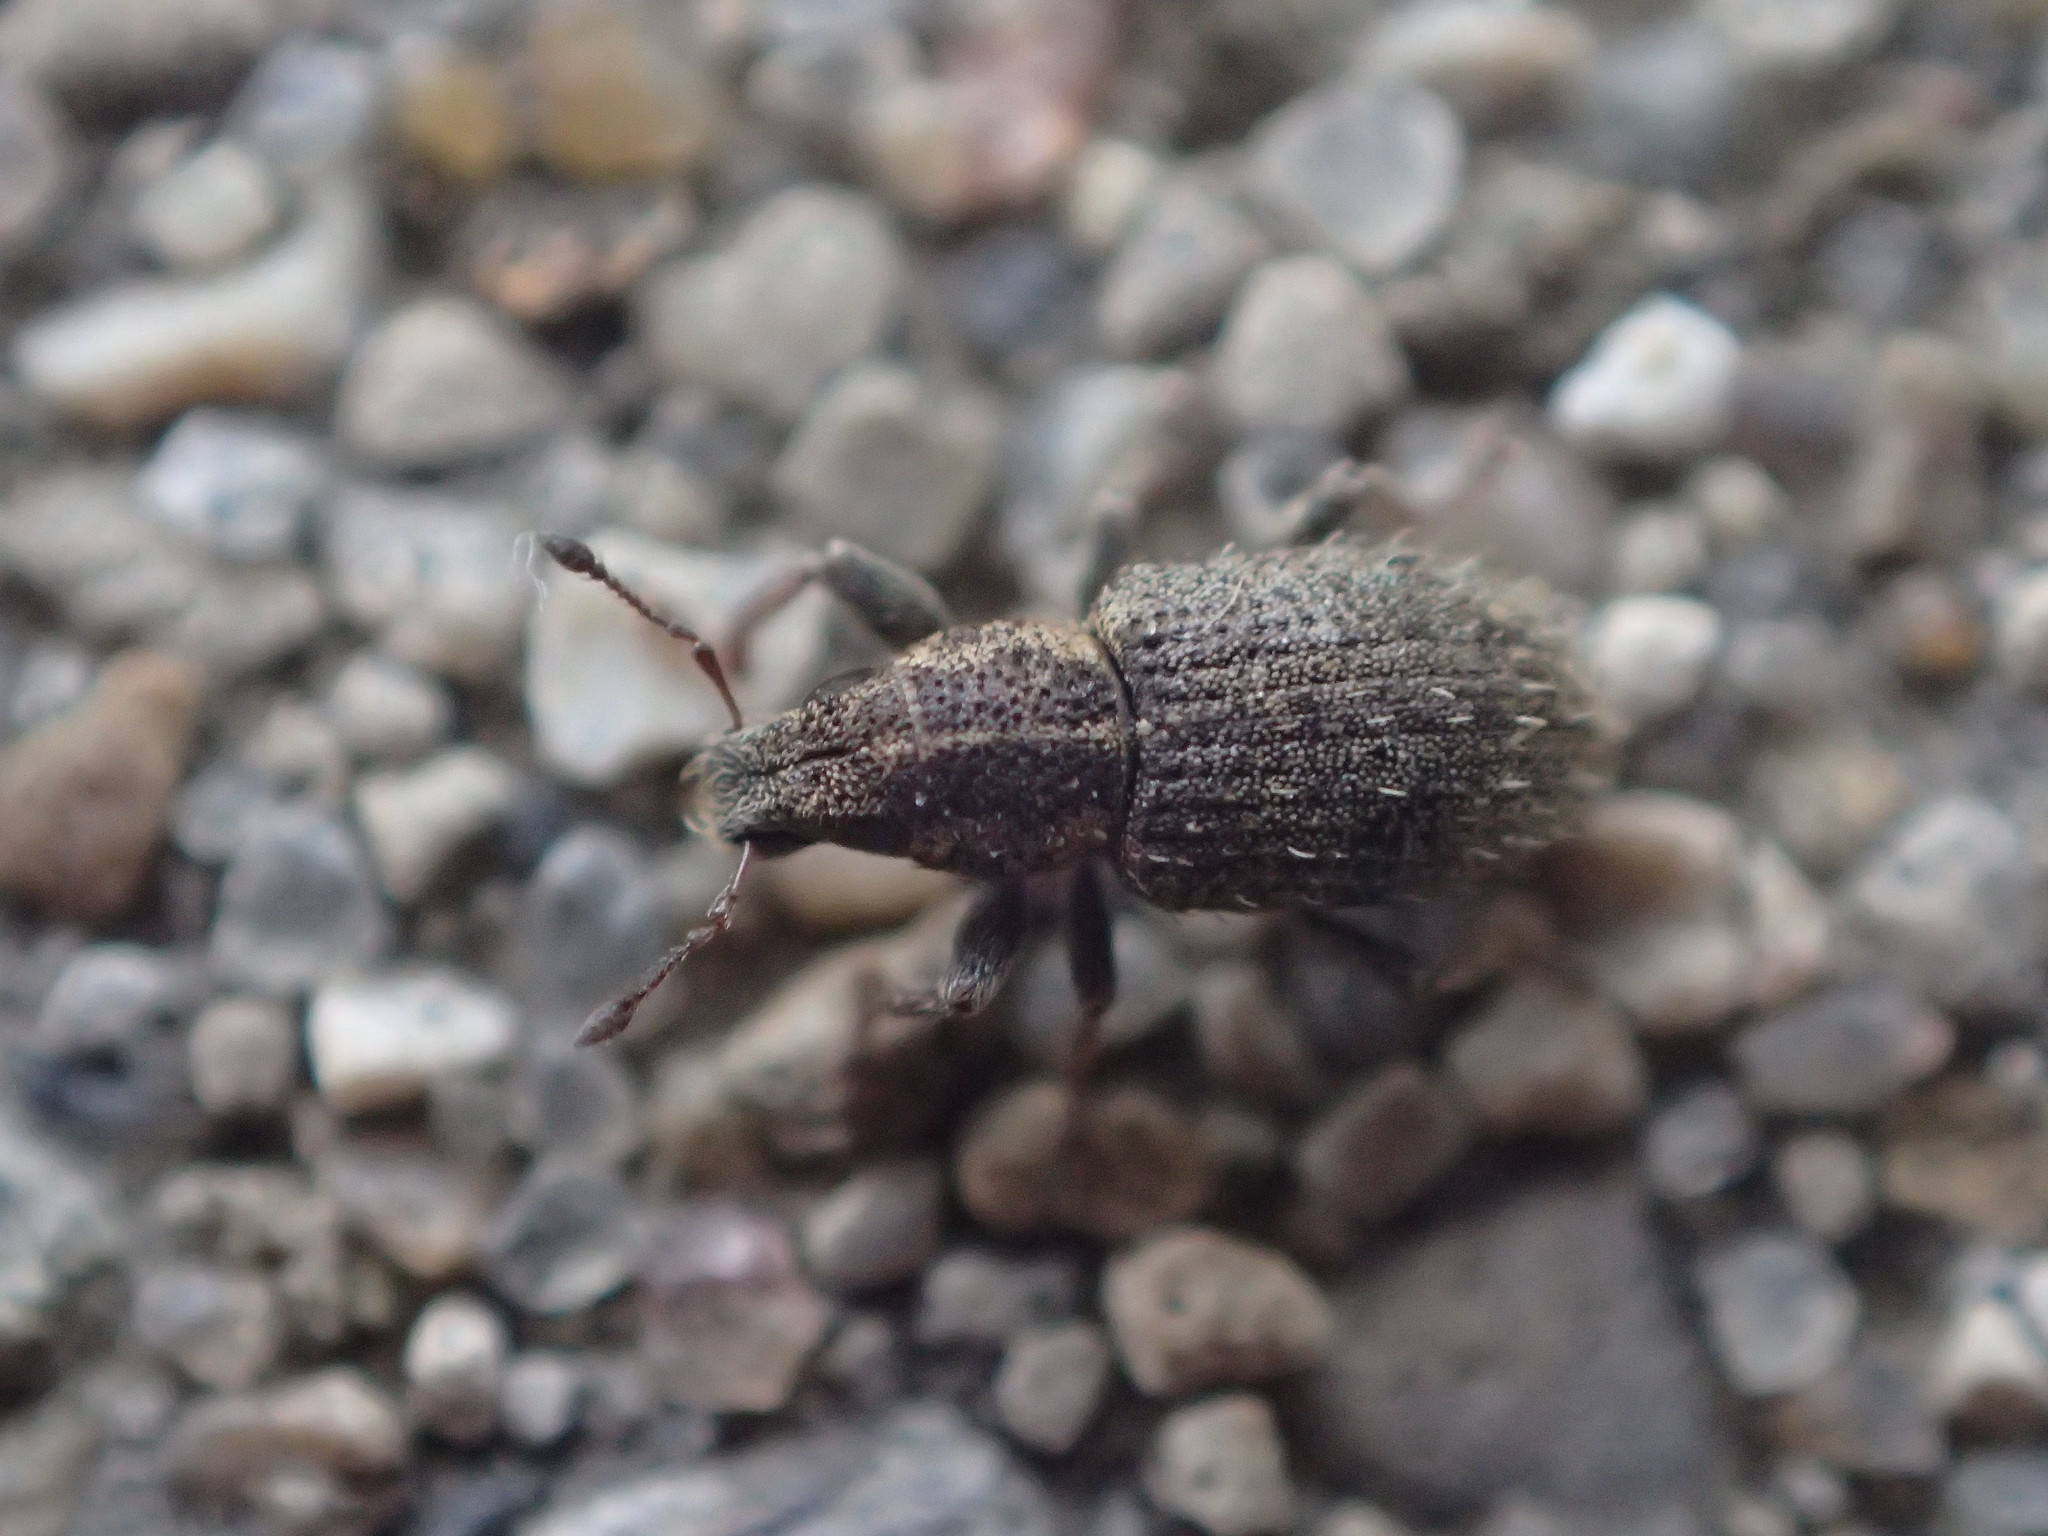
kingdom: Animalia
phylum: Arthropoda
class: Insecta
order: Coleoptera
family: Curculionidae
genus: Sitona
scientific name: Sitona hispidulus
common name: Clover weevil
